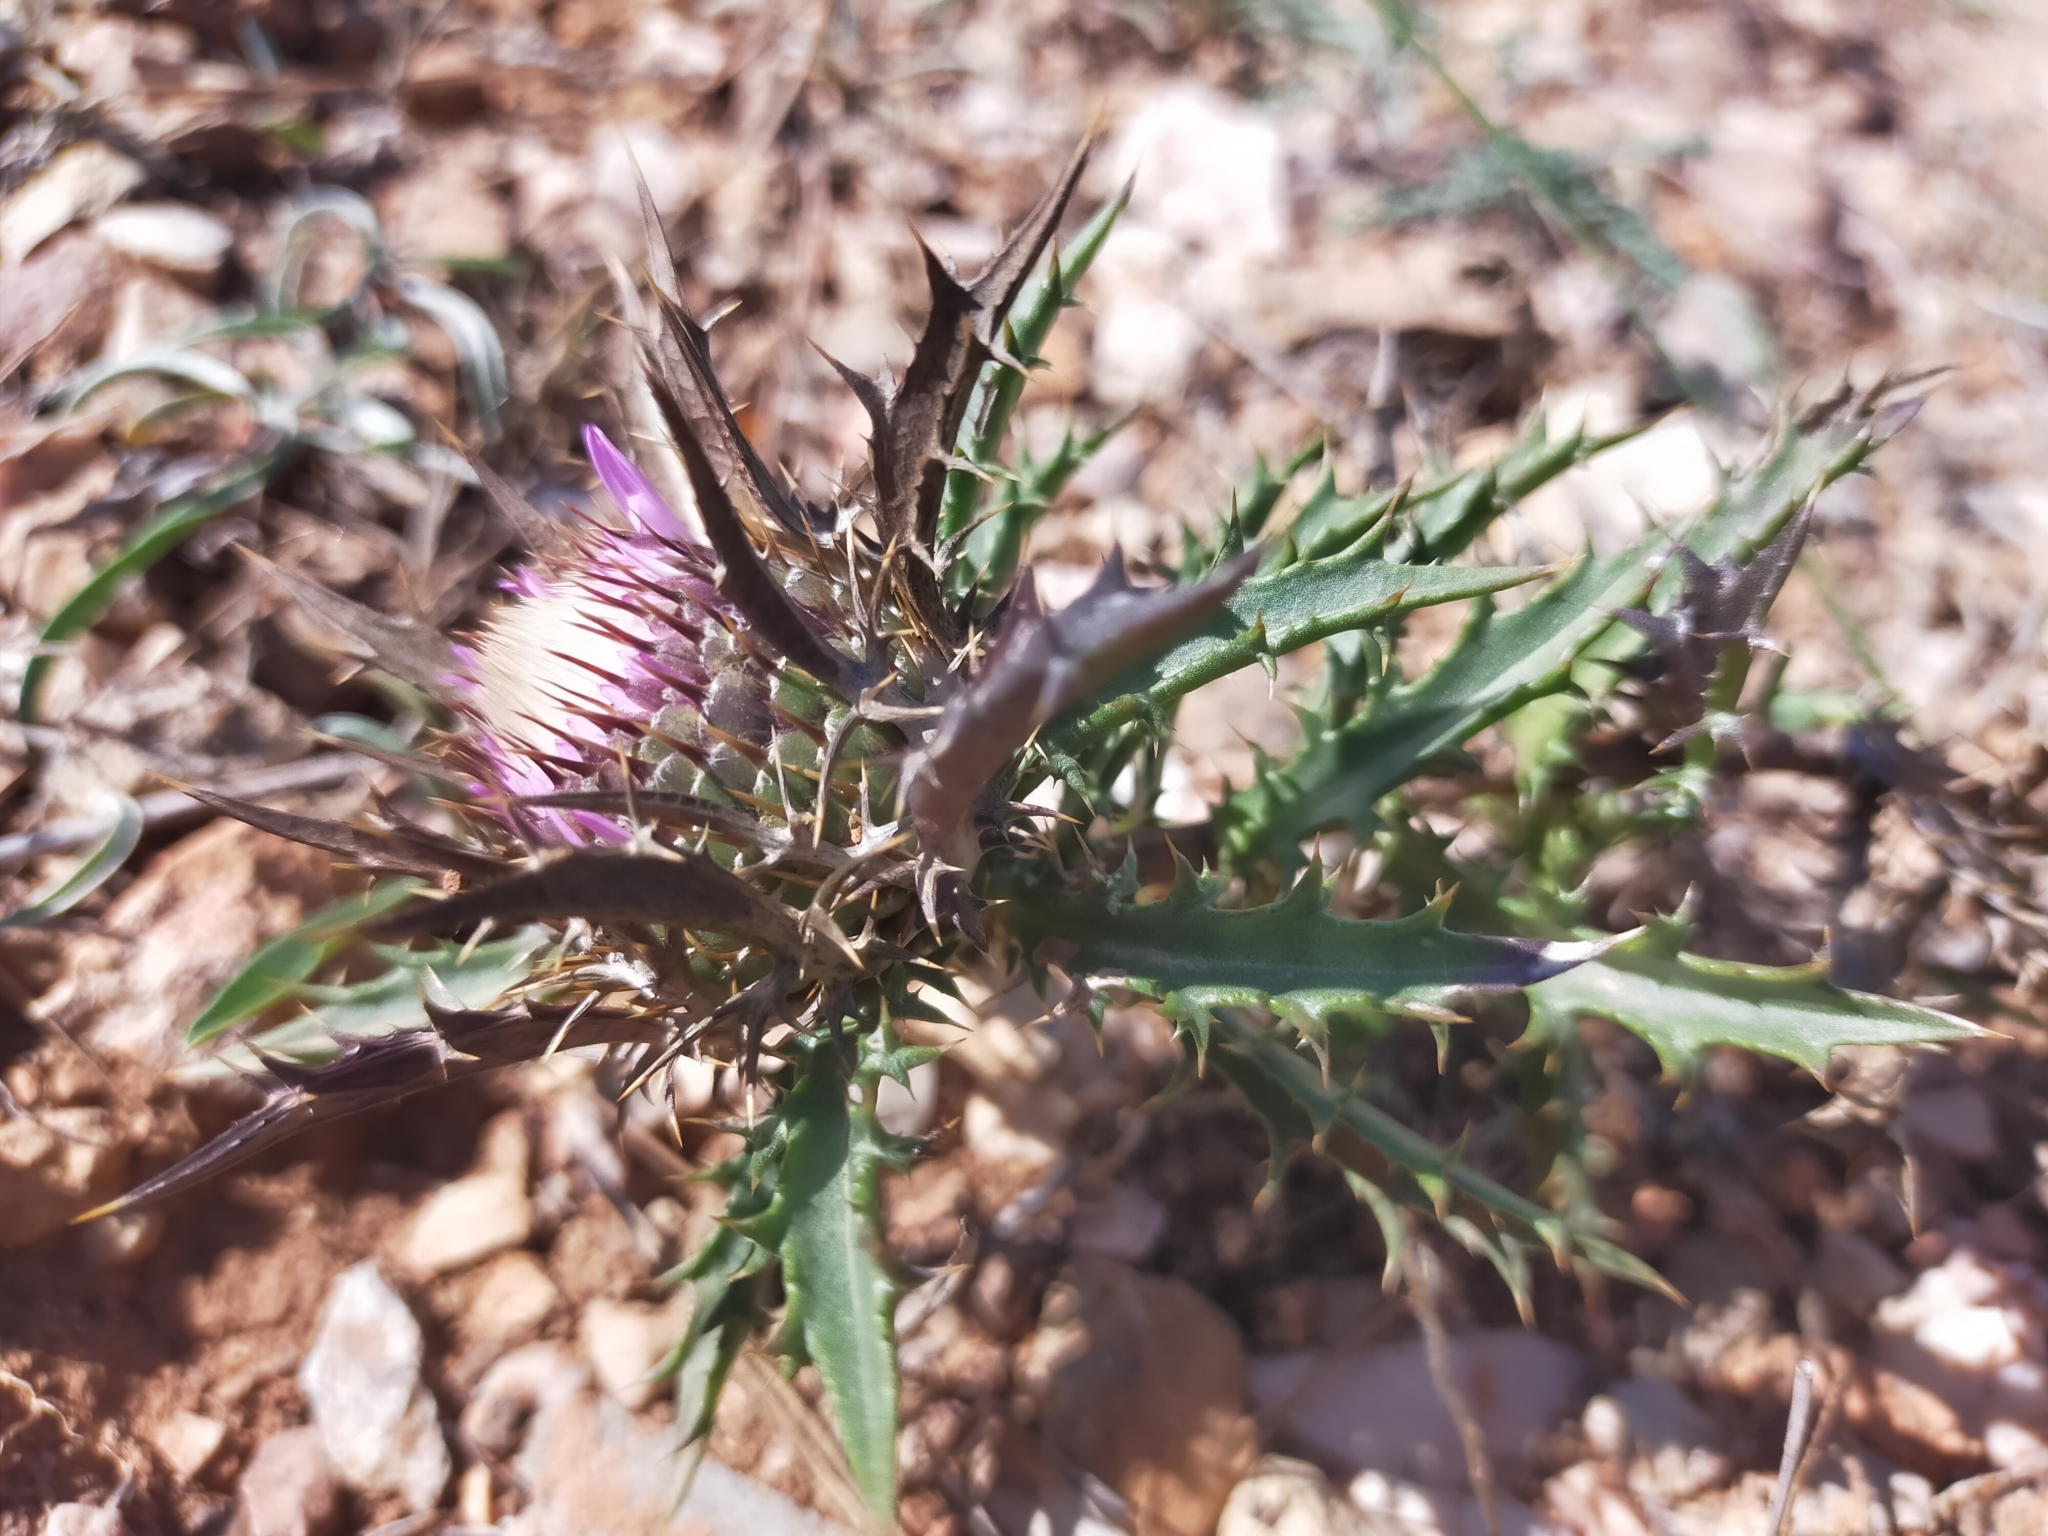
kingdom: Plantae
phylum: Tracheophyta
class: Magnoliopsida
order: Asterales
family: Asteraceae
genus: Atractylis
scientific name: Atractylis humilis
